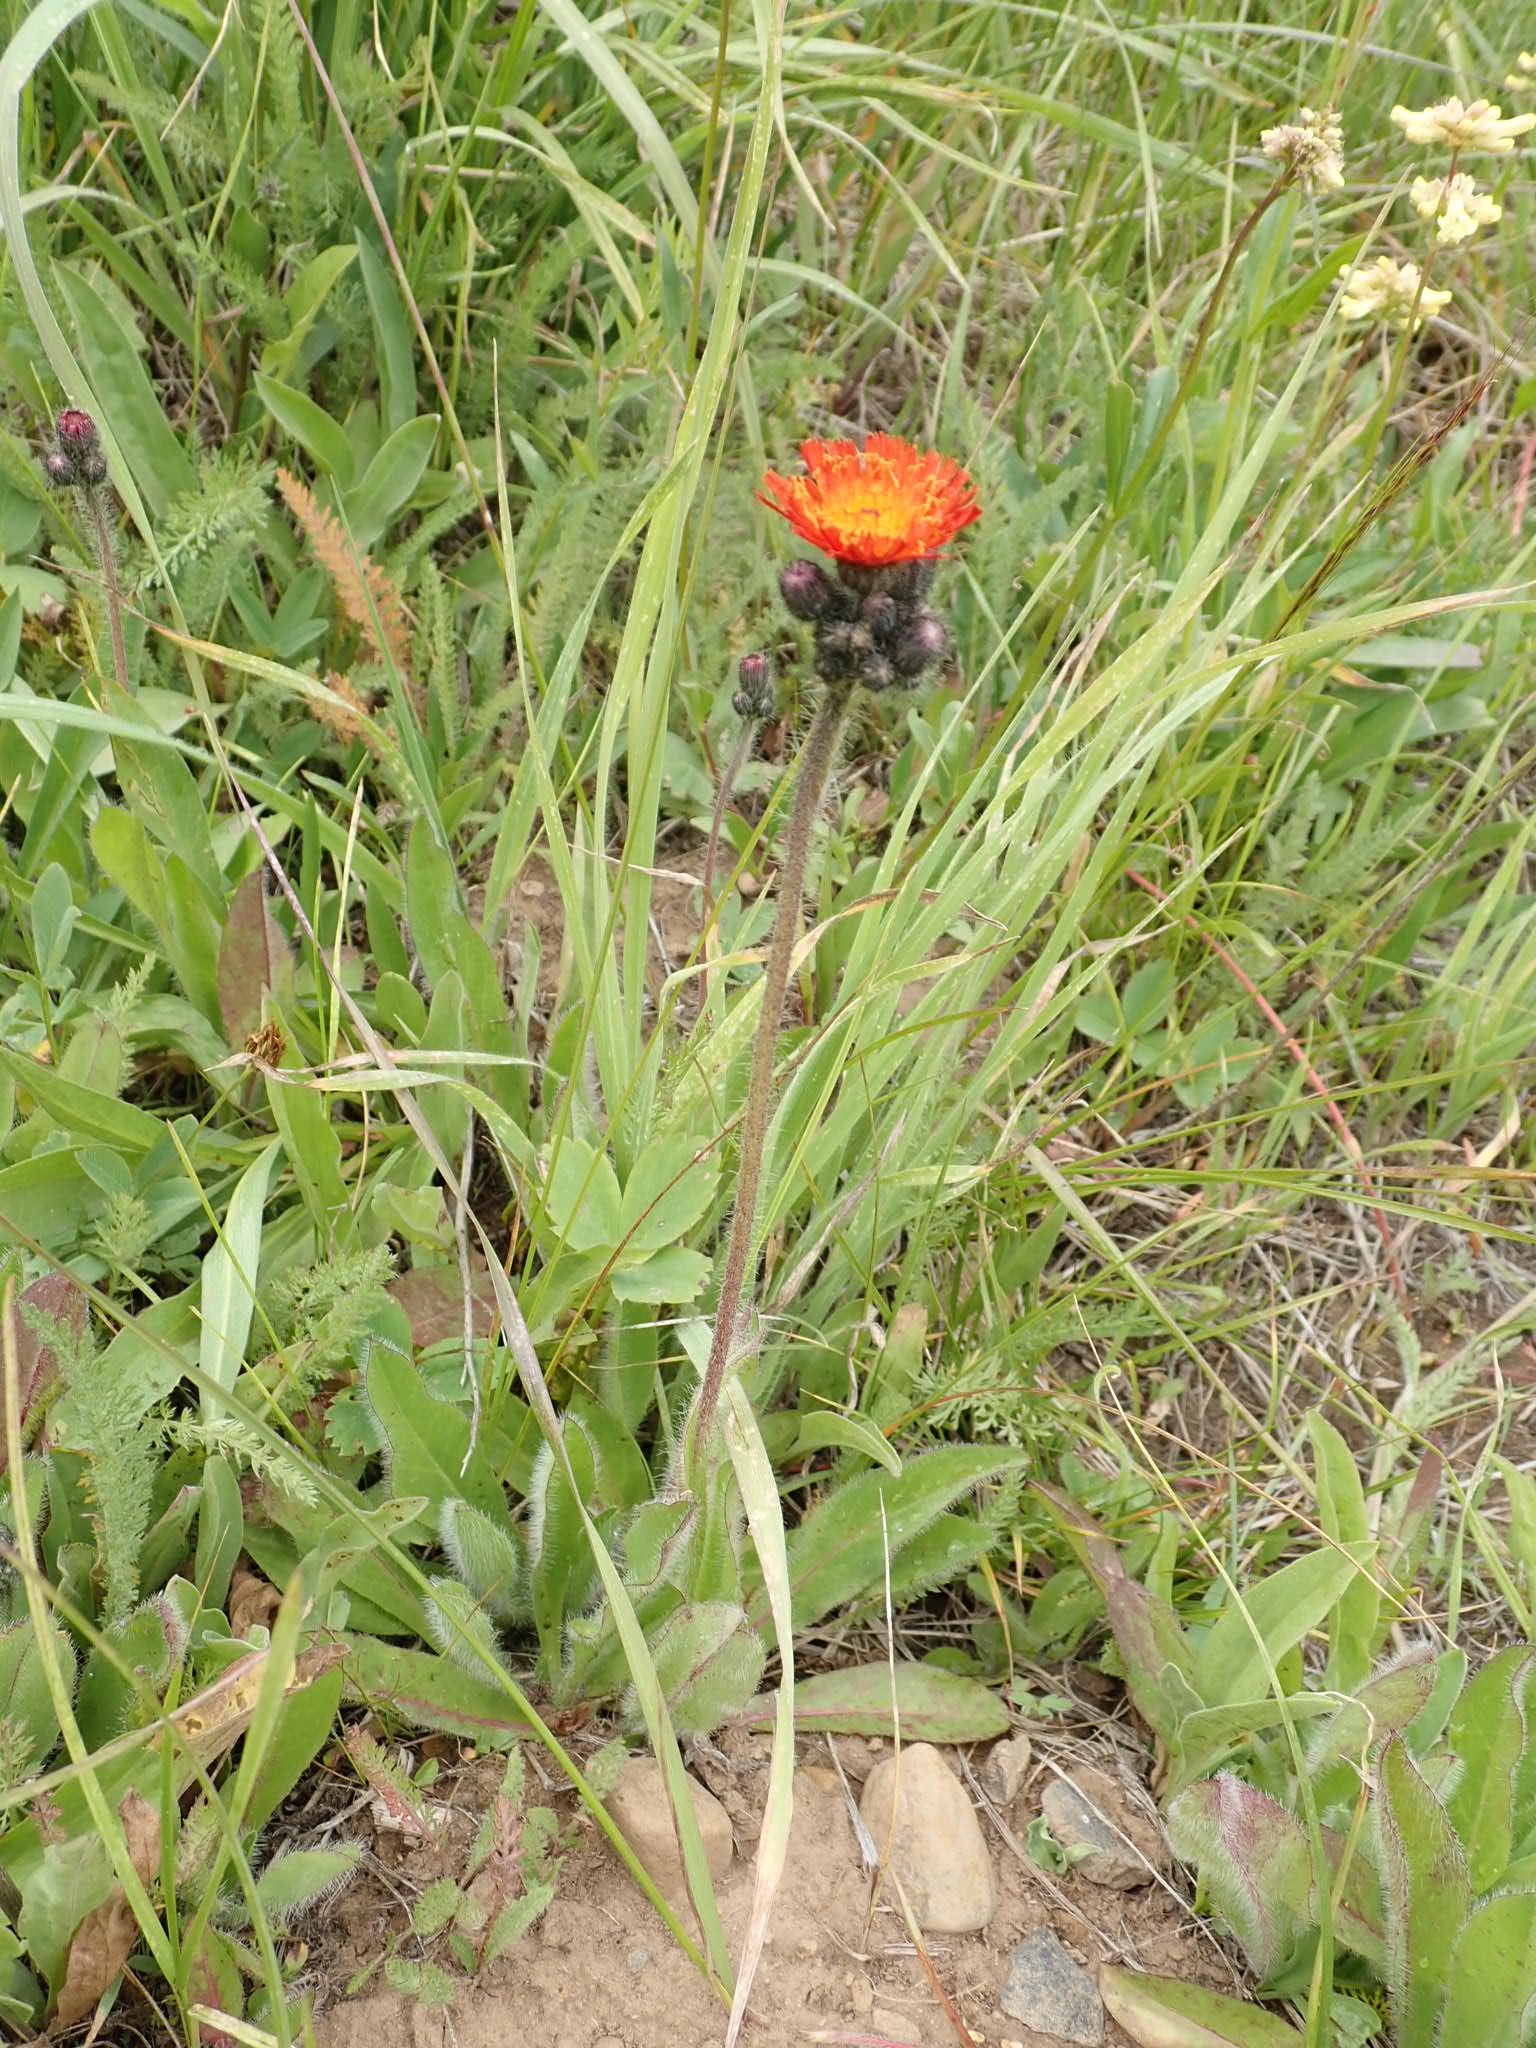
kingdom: Plantae
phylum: Tracheophyta
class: Magnoliopsida
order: Asterales
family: Asteraceae
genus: Pilosella
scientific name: Pilosella aurantiaca
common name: Fox-and-cubs
